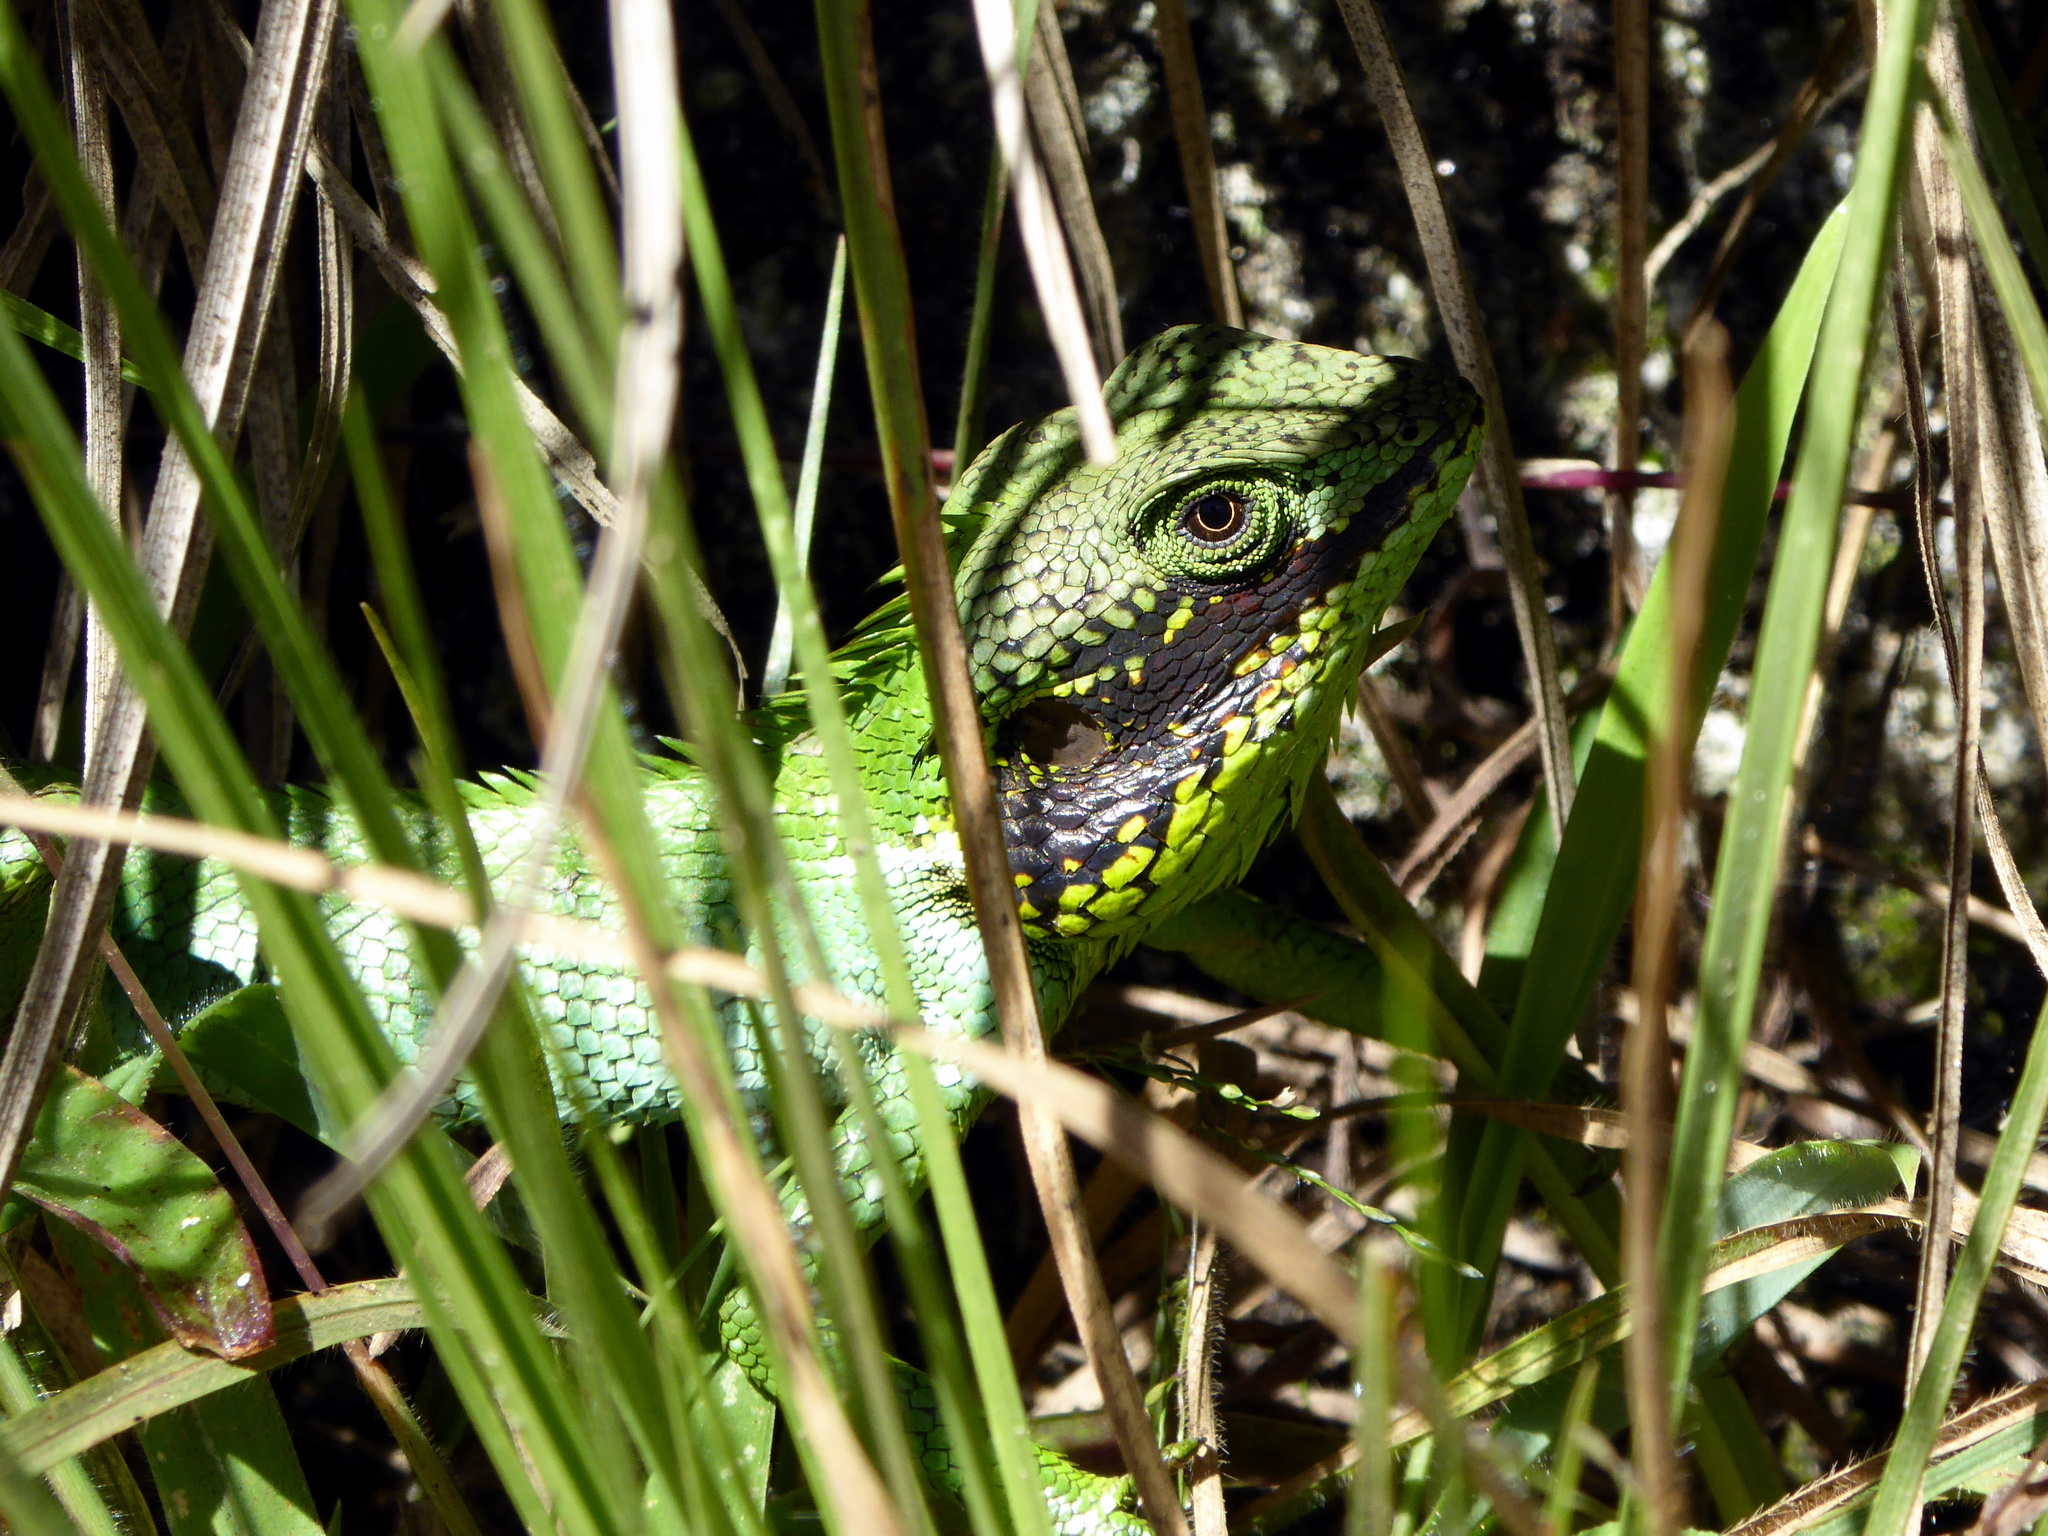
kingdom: Animalia
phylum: Chordata
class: Squamata
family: Agamidae
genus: Calotes
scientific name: Calotes nigrilabris
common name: Black-cheek lizard
